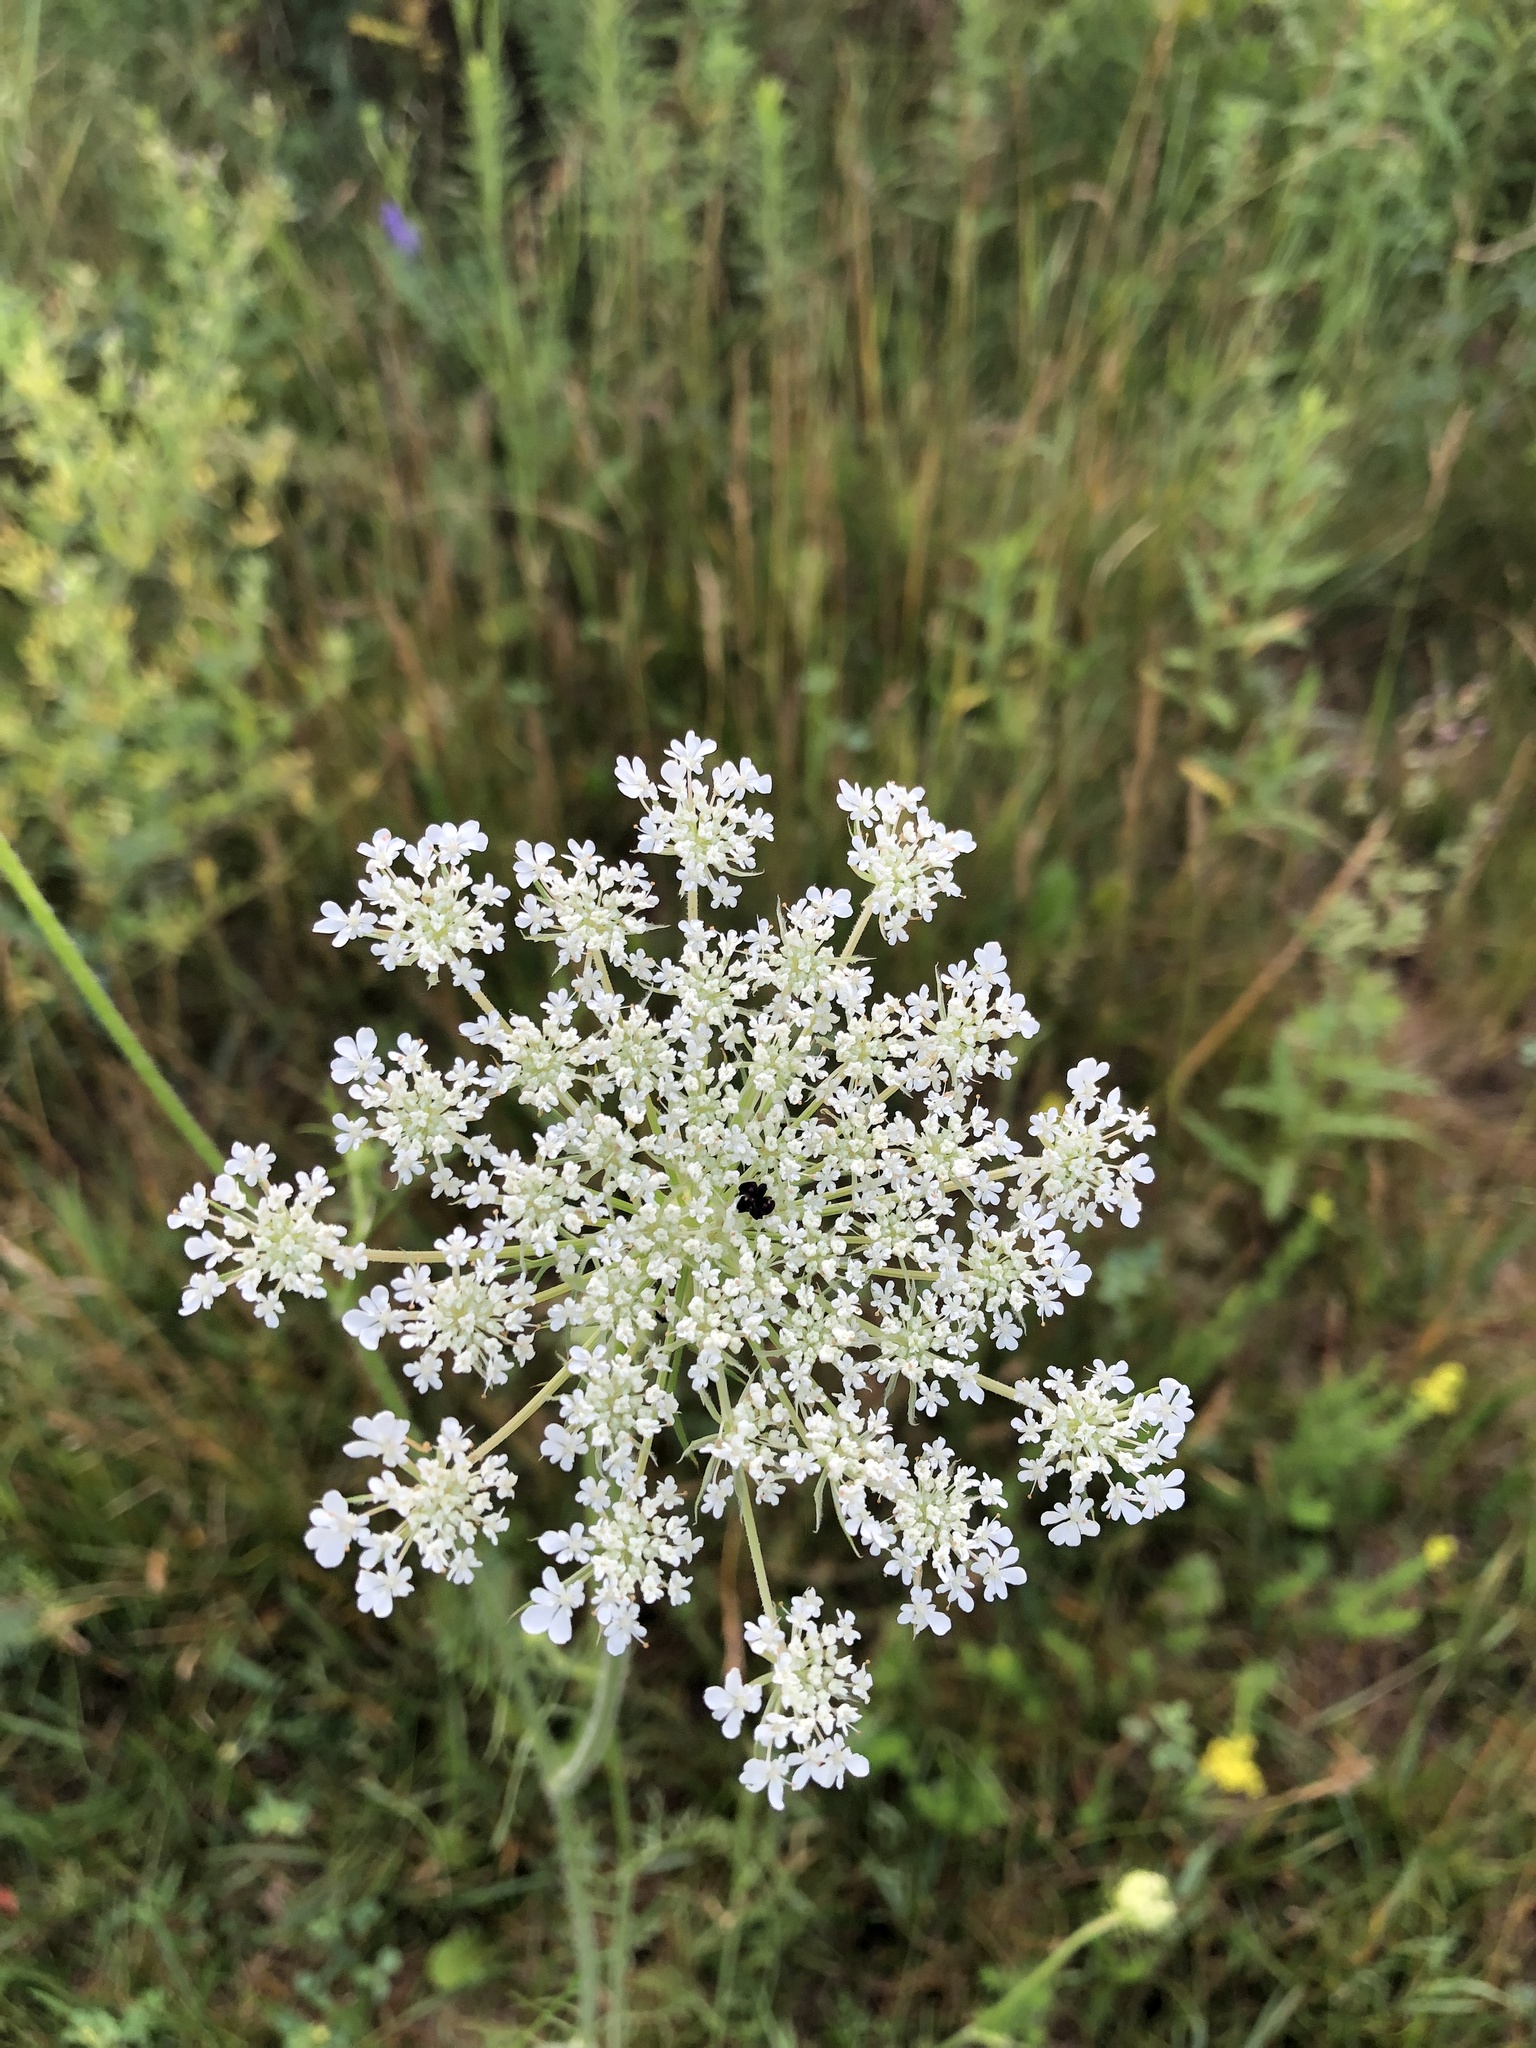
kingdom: Plantae
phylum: Tracheophyta
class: Magnoliopsida
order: Apiales
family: Apiaceae
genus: Daucus
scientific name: Daucus carota
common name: Wild carrot
